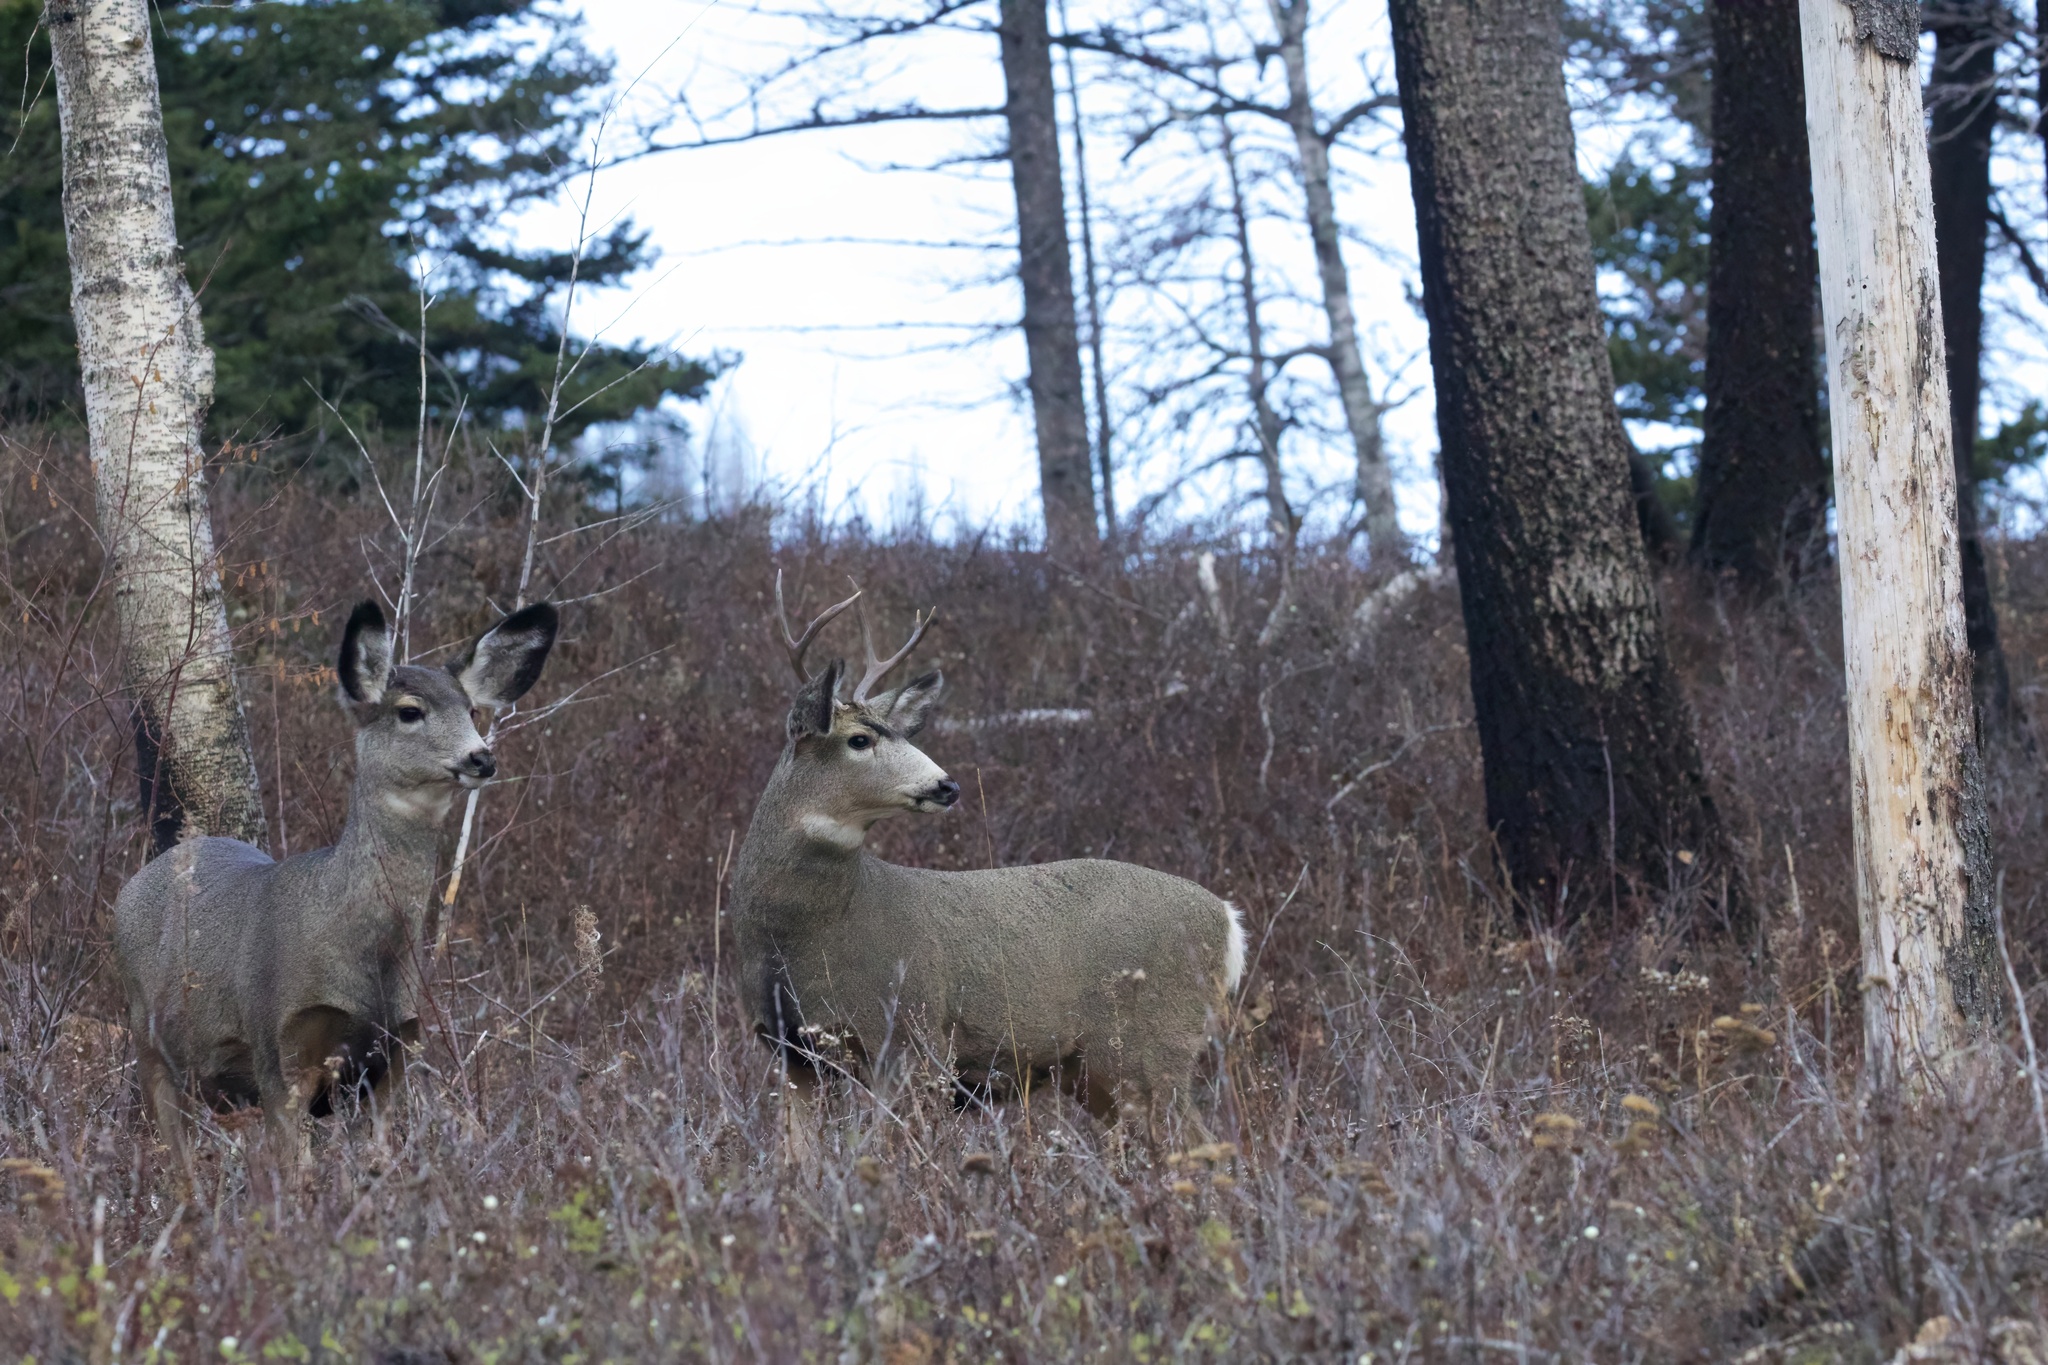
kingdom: Animalia
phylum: Chordata
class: Mammalia
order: Artiodactyla
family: Cervidae
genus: Odocoileus
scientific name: Odocoileus hemionus
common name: Mule deer
